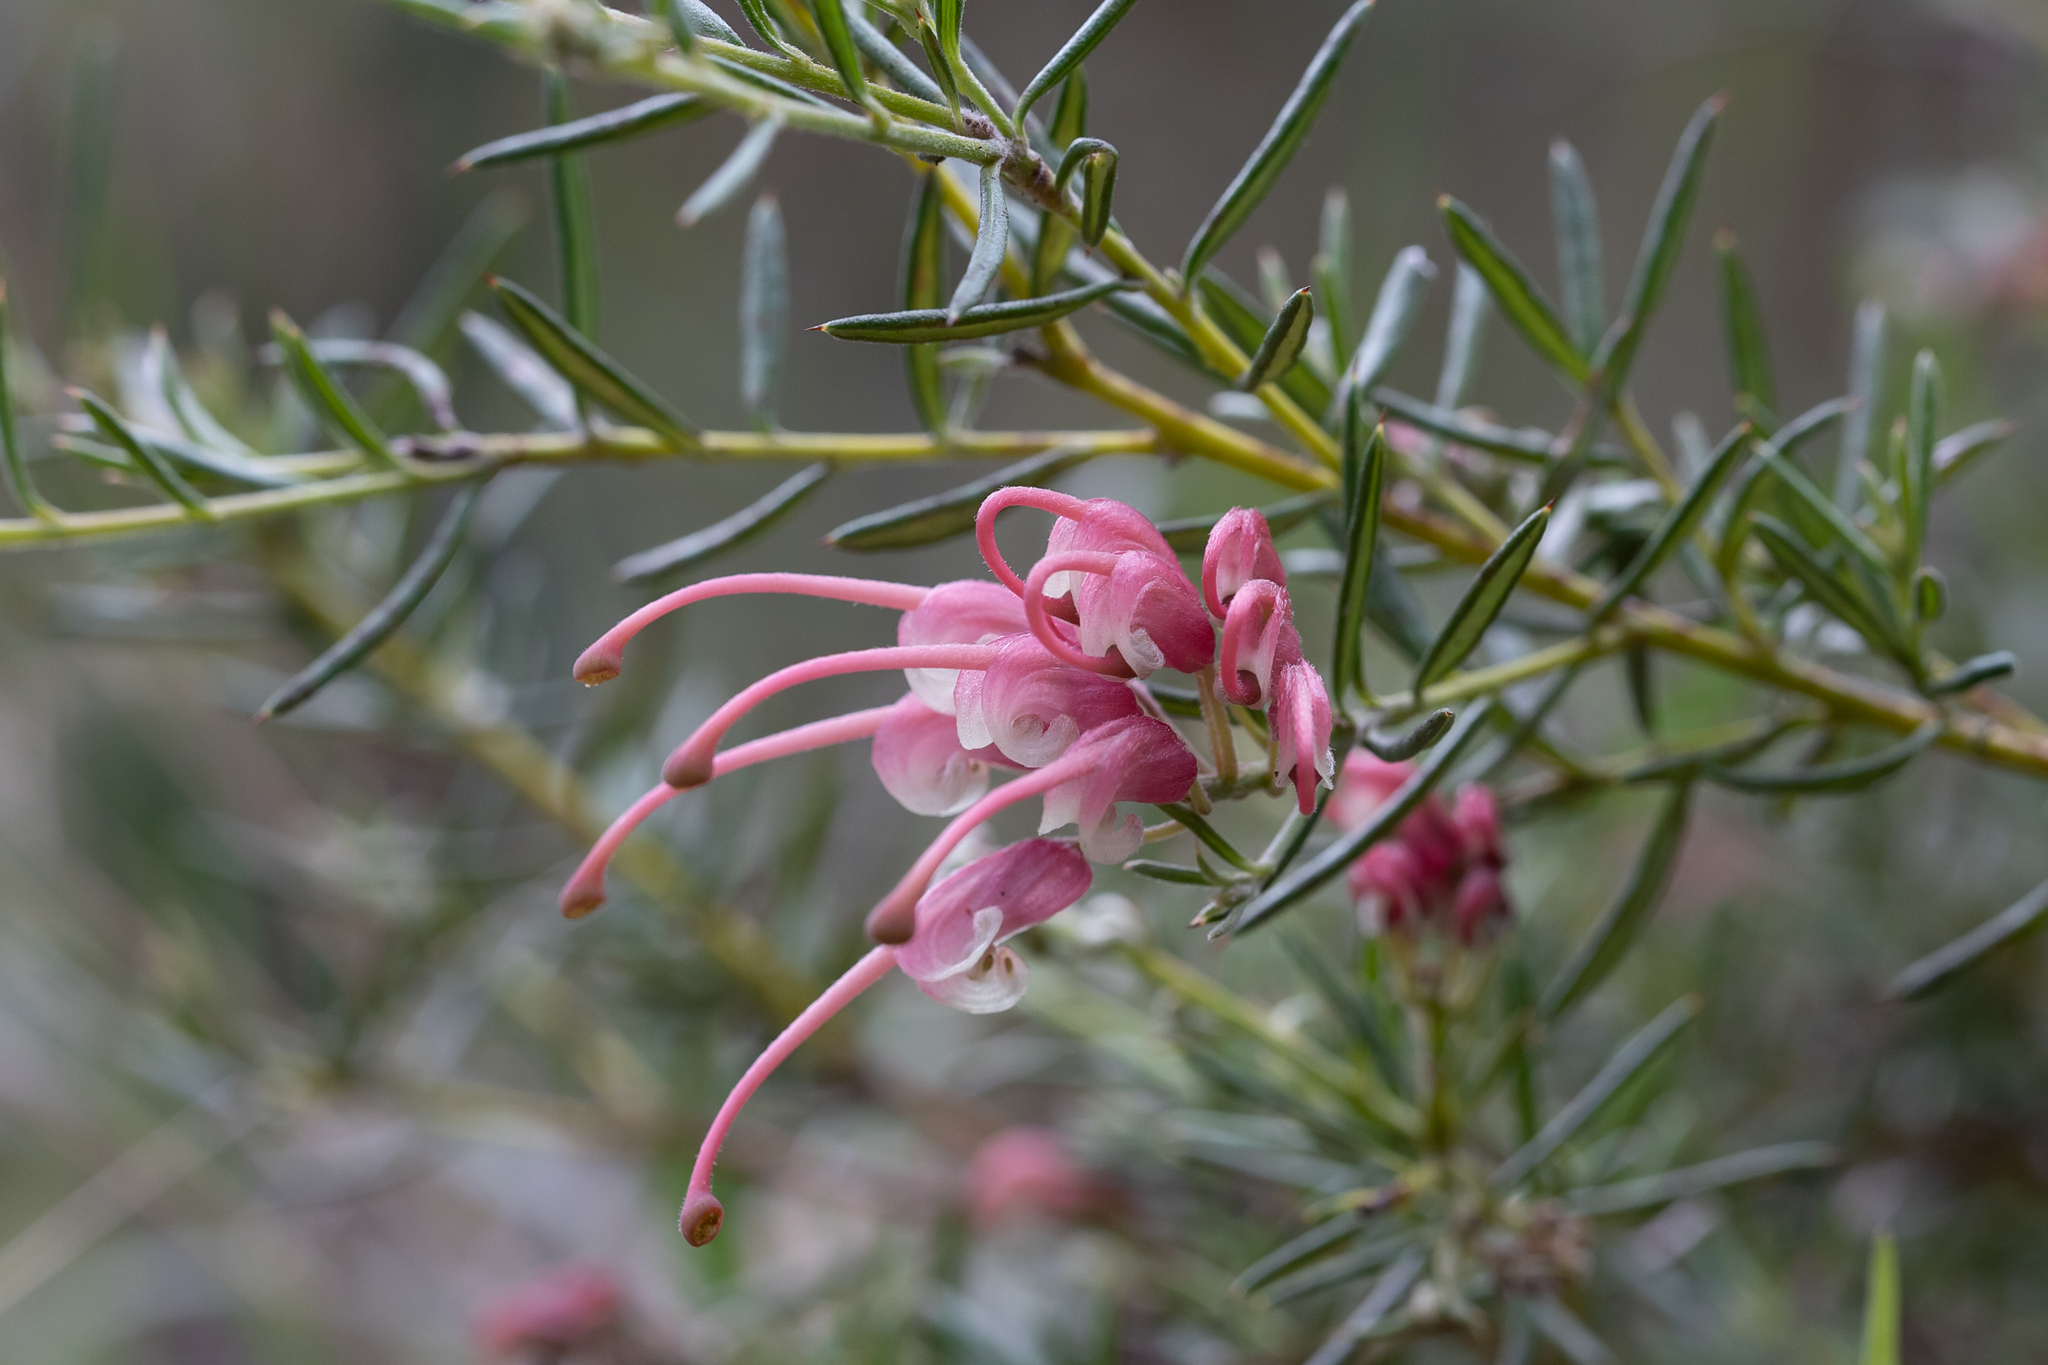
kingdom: Plantae
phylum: Tracheophyta
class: Magnoliopsida
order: Proteales
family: Proteaceae
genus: Grevillea
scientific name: Grevillea lavandulacea
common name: Lavender grevillea
